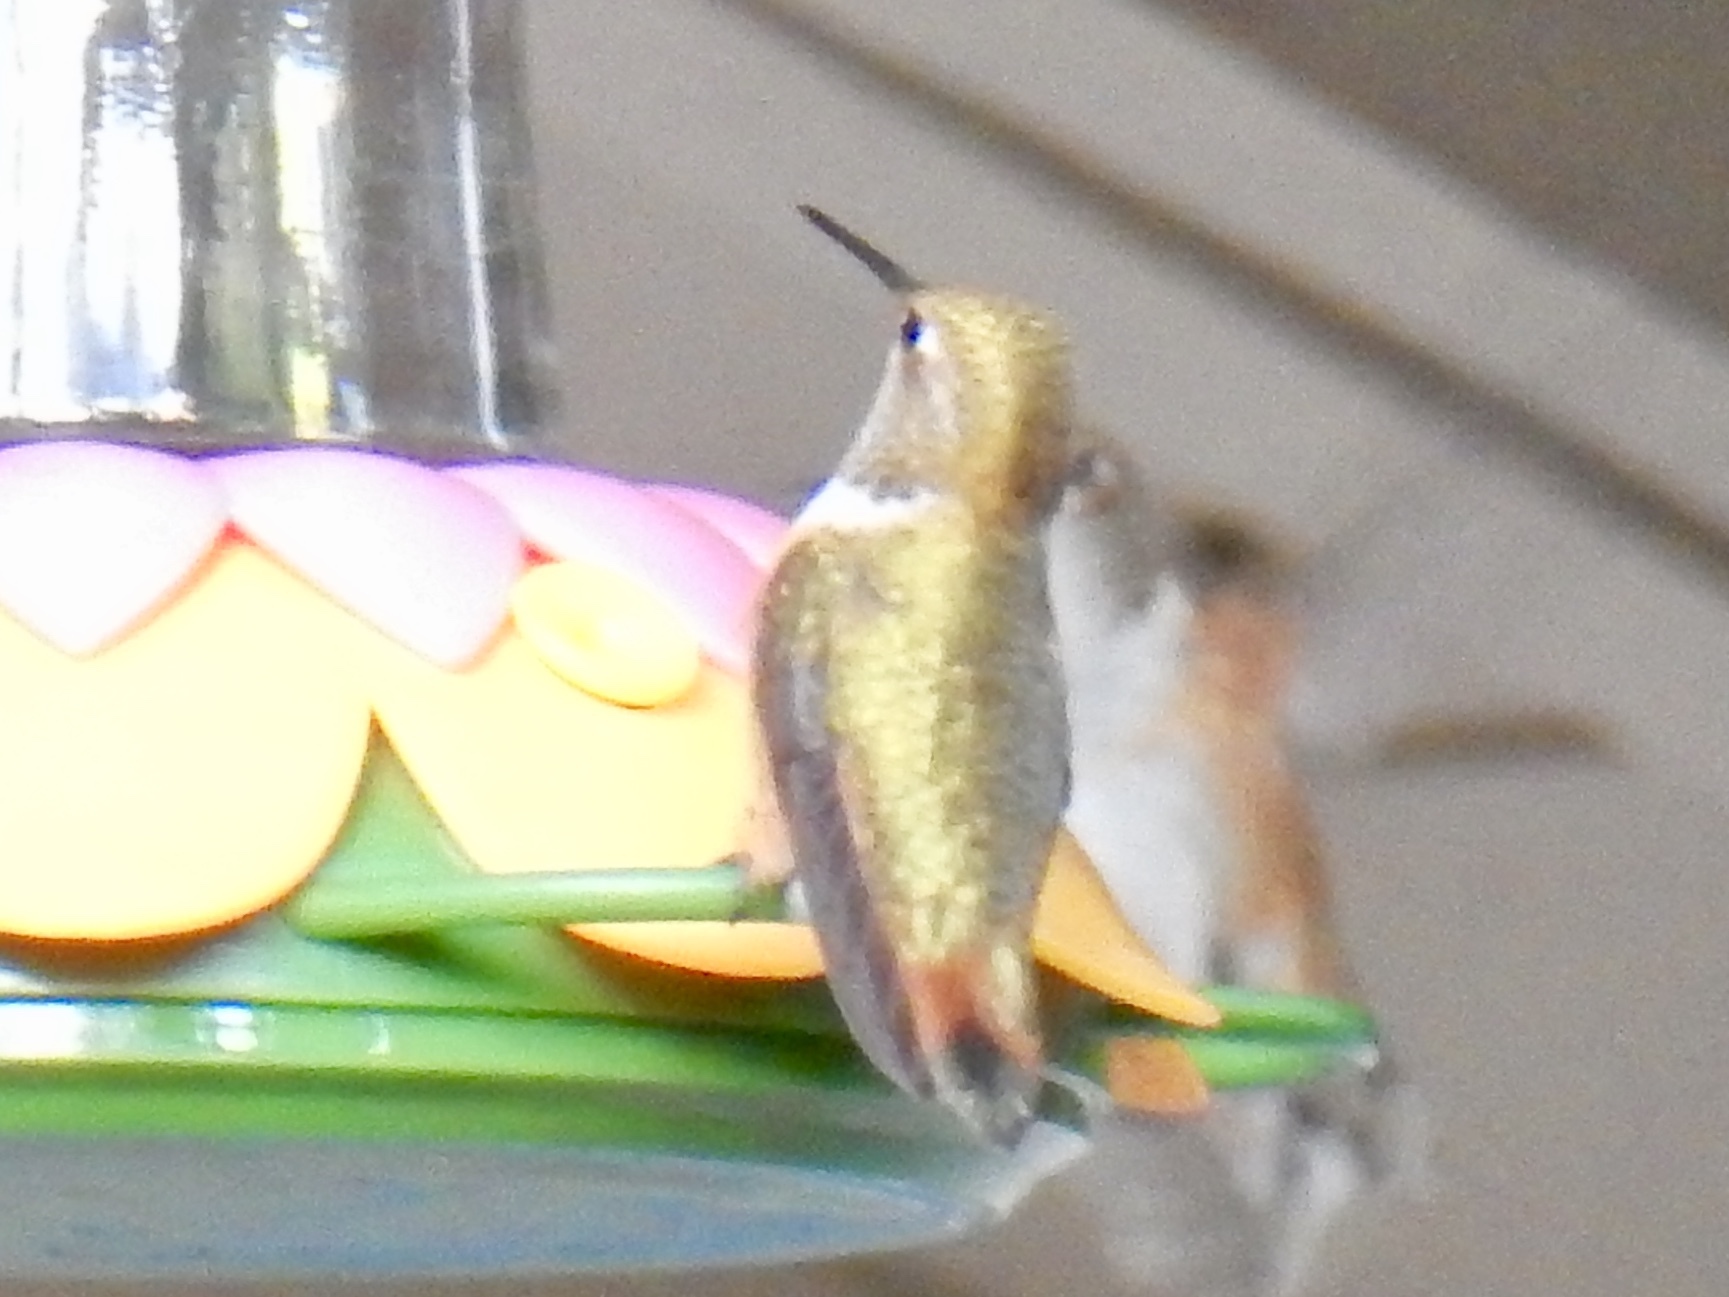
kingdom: Animalia
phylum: Chordata
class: Aves
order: Apodiformes
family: Trochilidae
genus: Selasphorus
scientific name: Selasphorus rufus
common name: Rufous hummingbird
